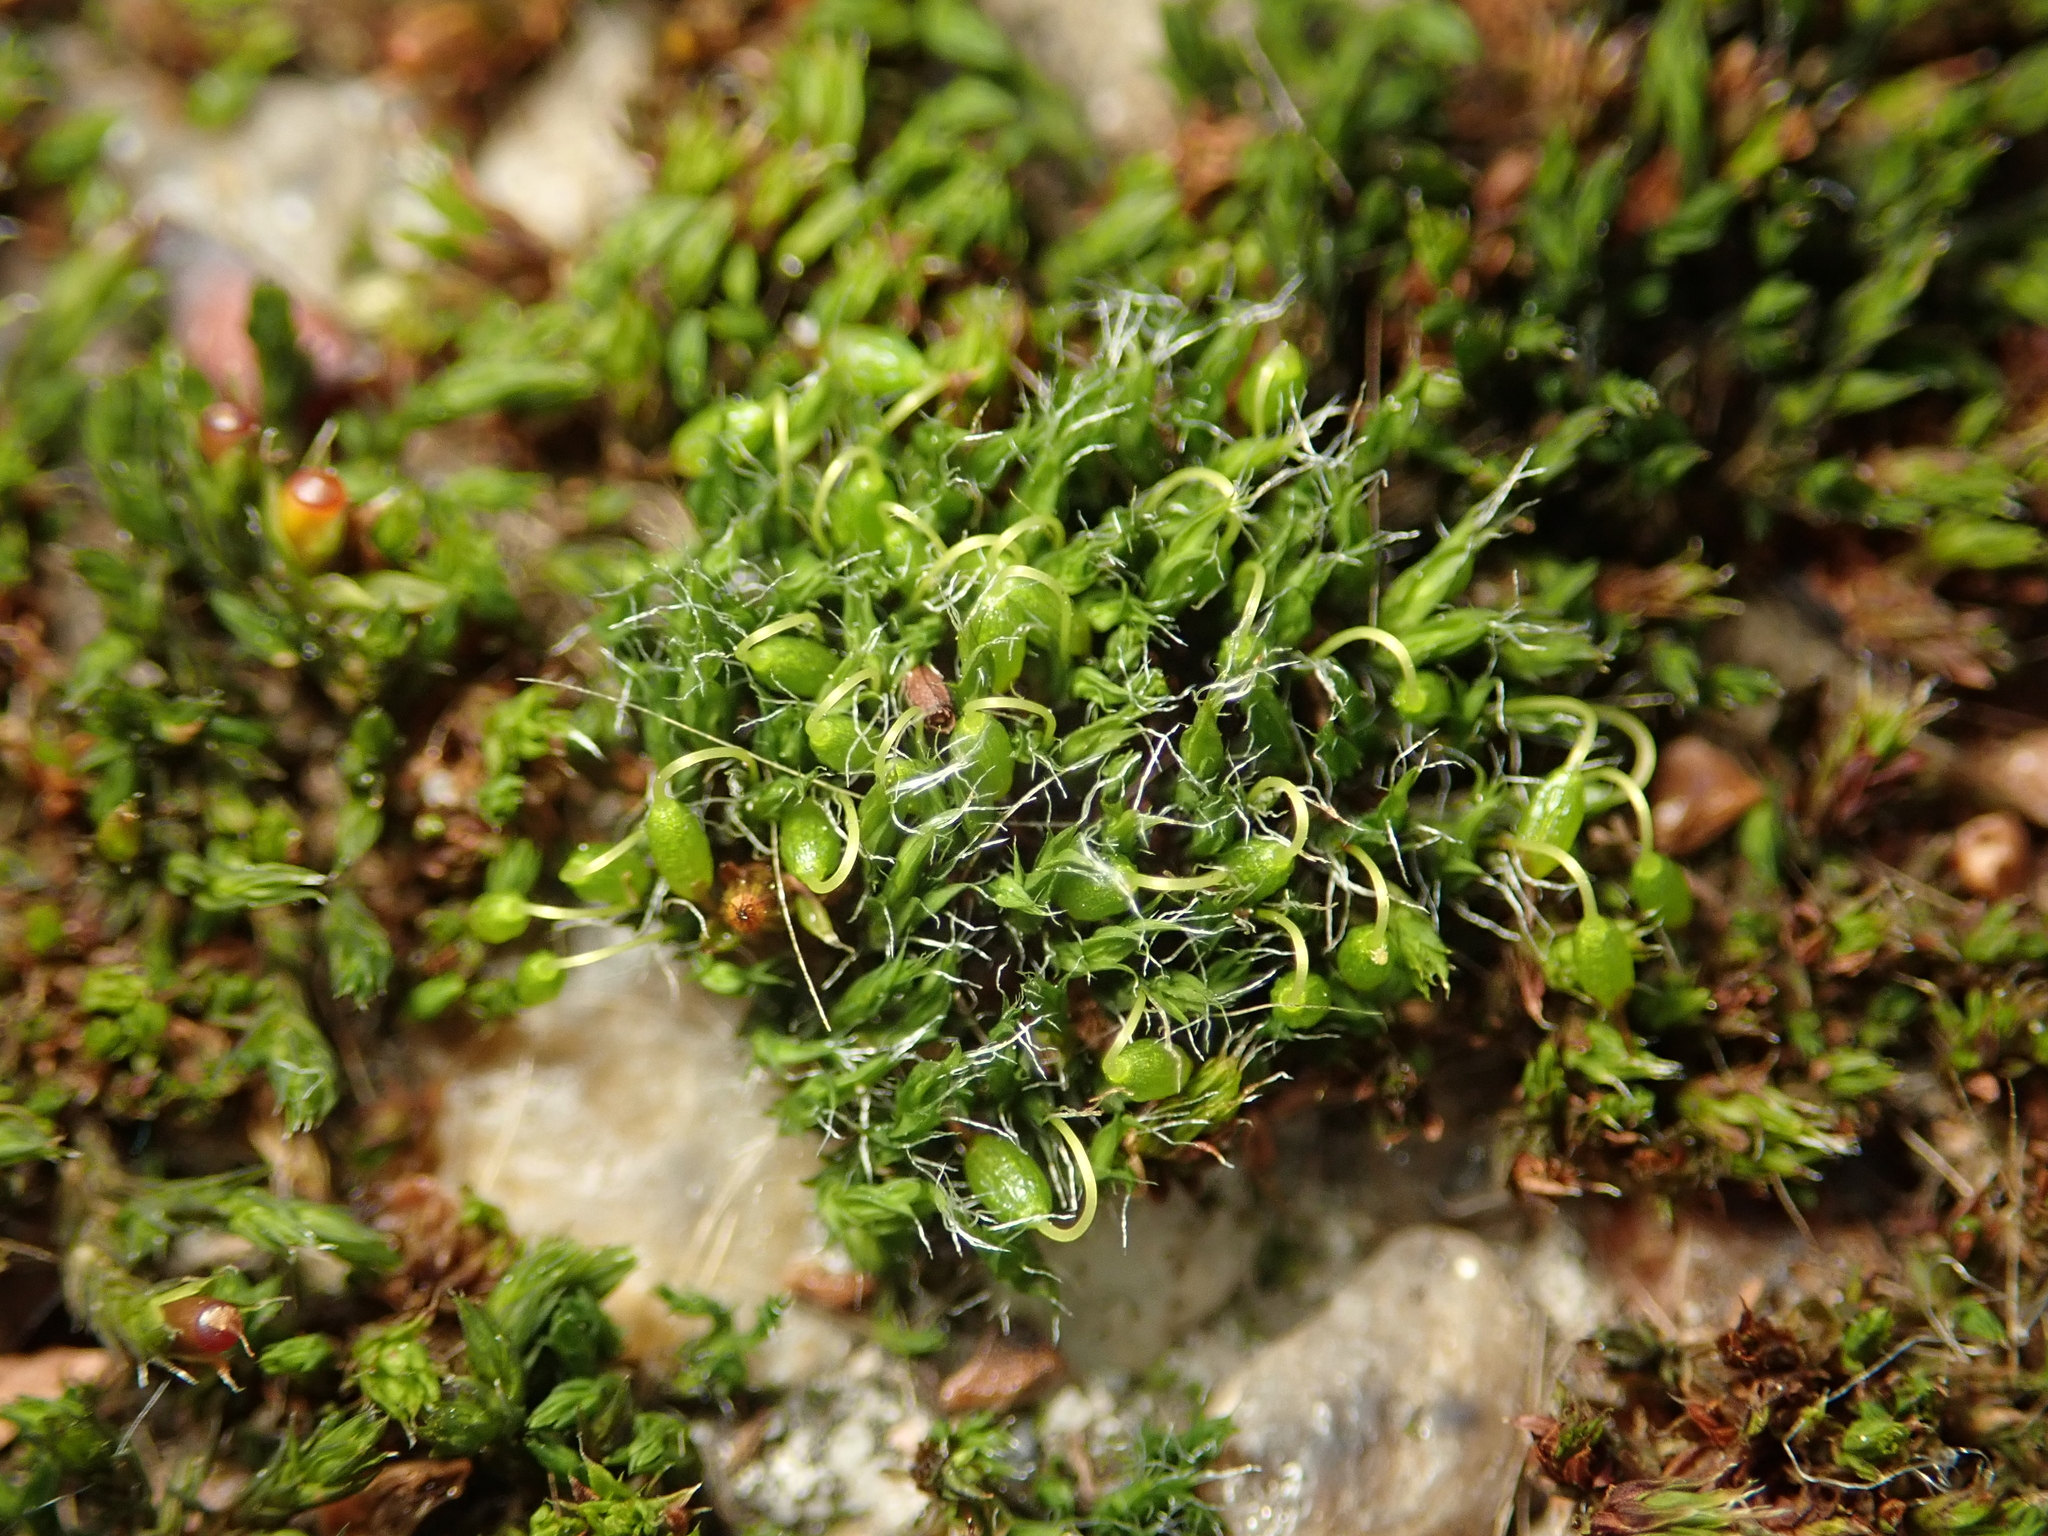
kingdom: Plantae
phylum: Bryophyta
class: Bryopsida
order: Grimmiales
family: Grimmiaceae
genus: Grimmia
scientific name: Grimmia pulvinata
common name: Grey-cushioned grimmia
